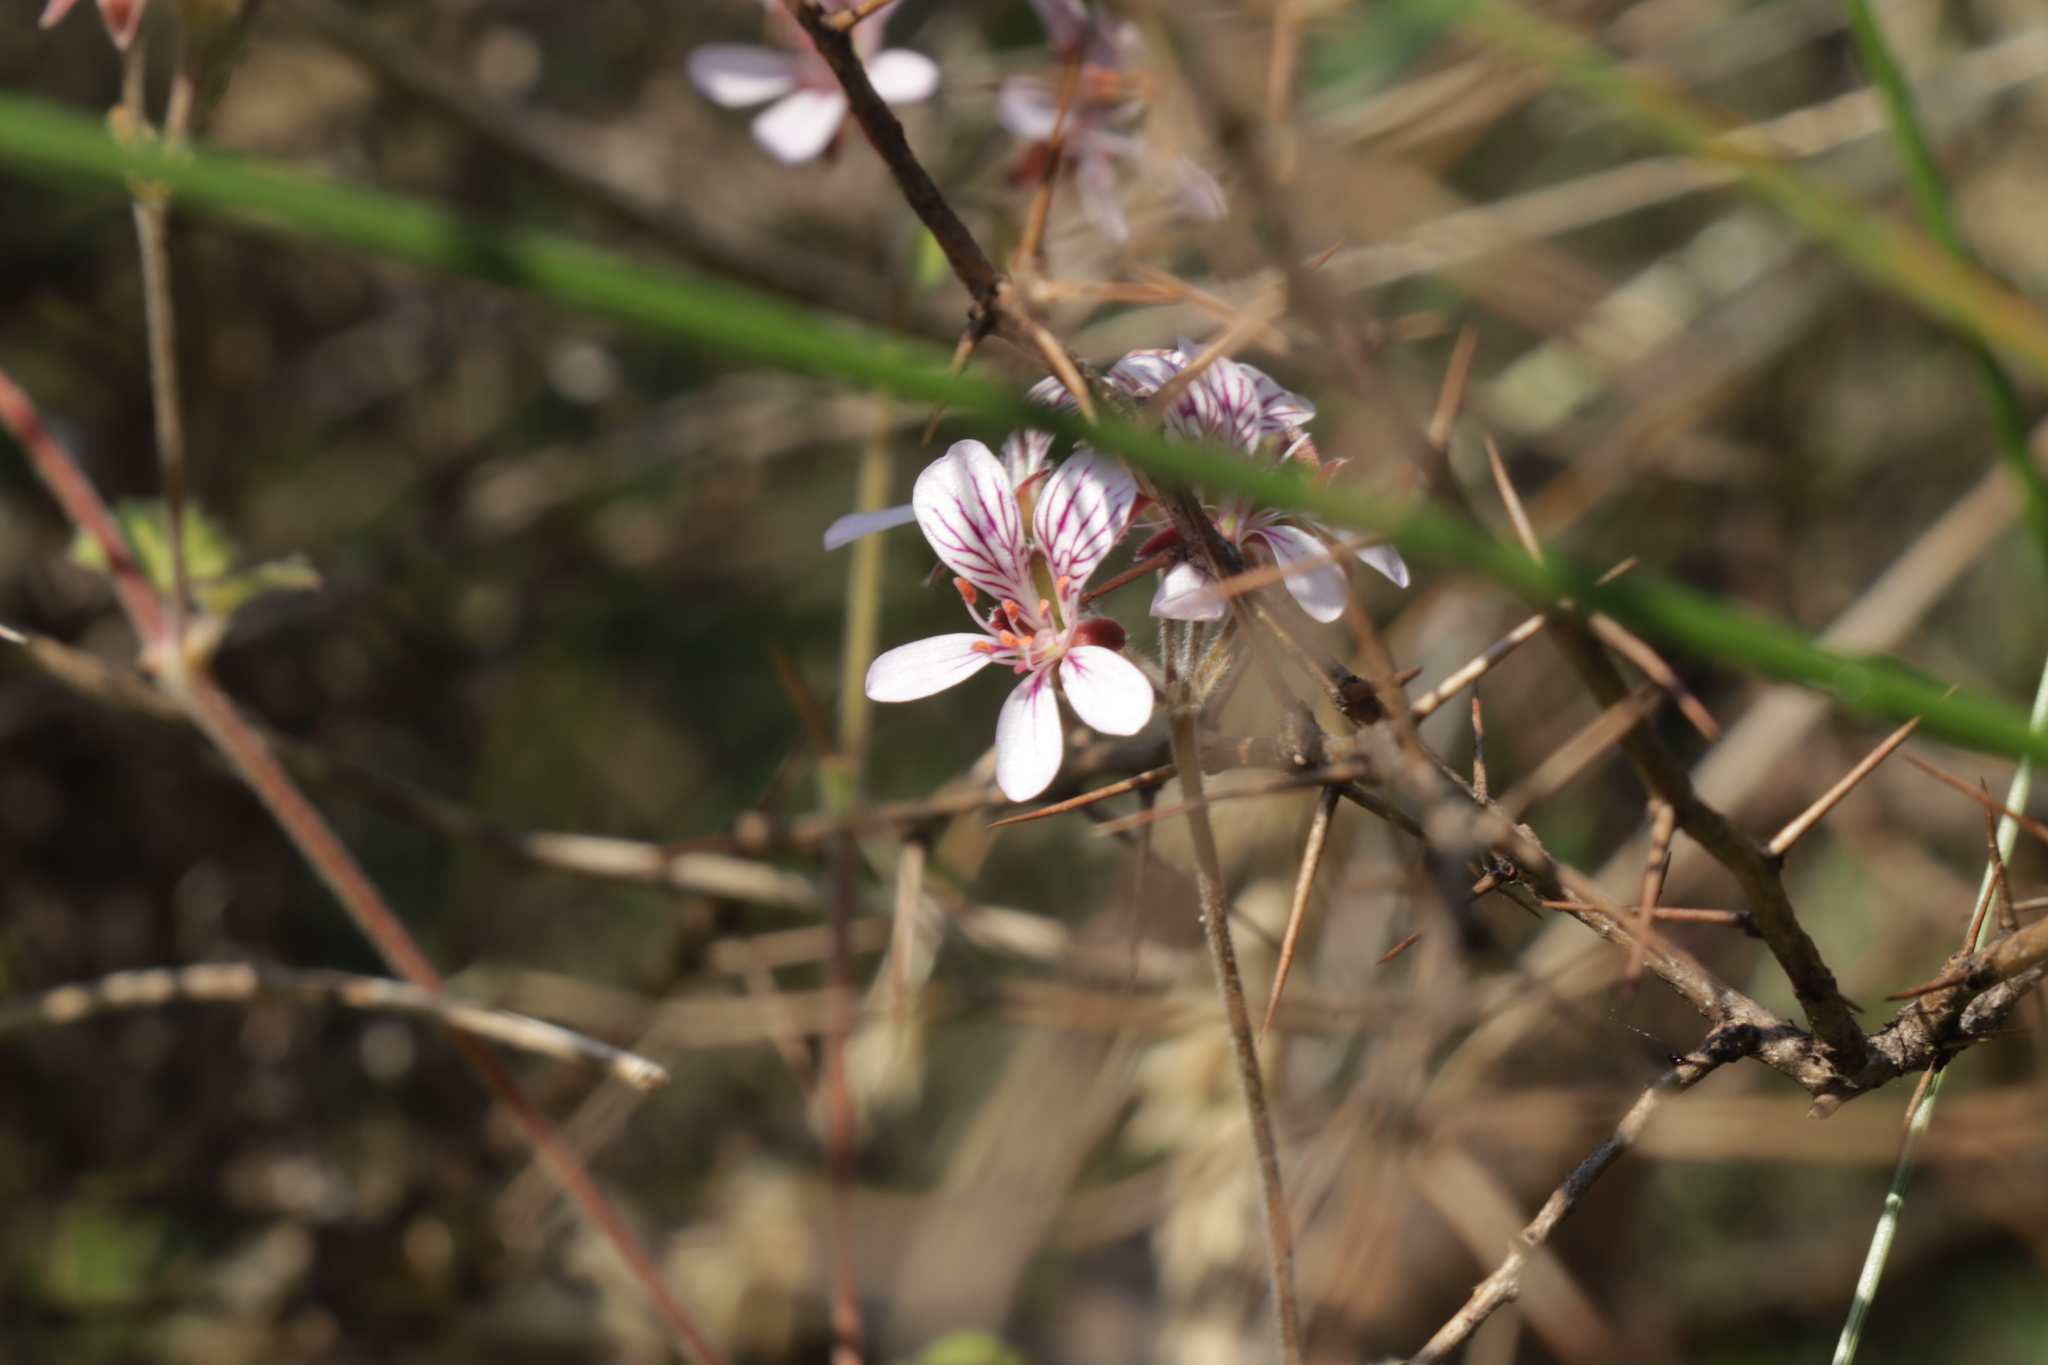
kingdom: Plantae
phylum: Tracheophyta
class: Magnoliopsida
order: Geraniales
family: Geraniaceae
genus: Pelargonium
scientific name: Pelargonium australe
